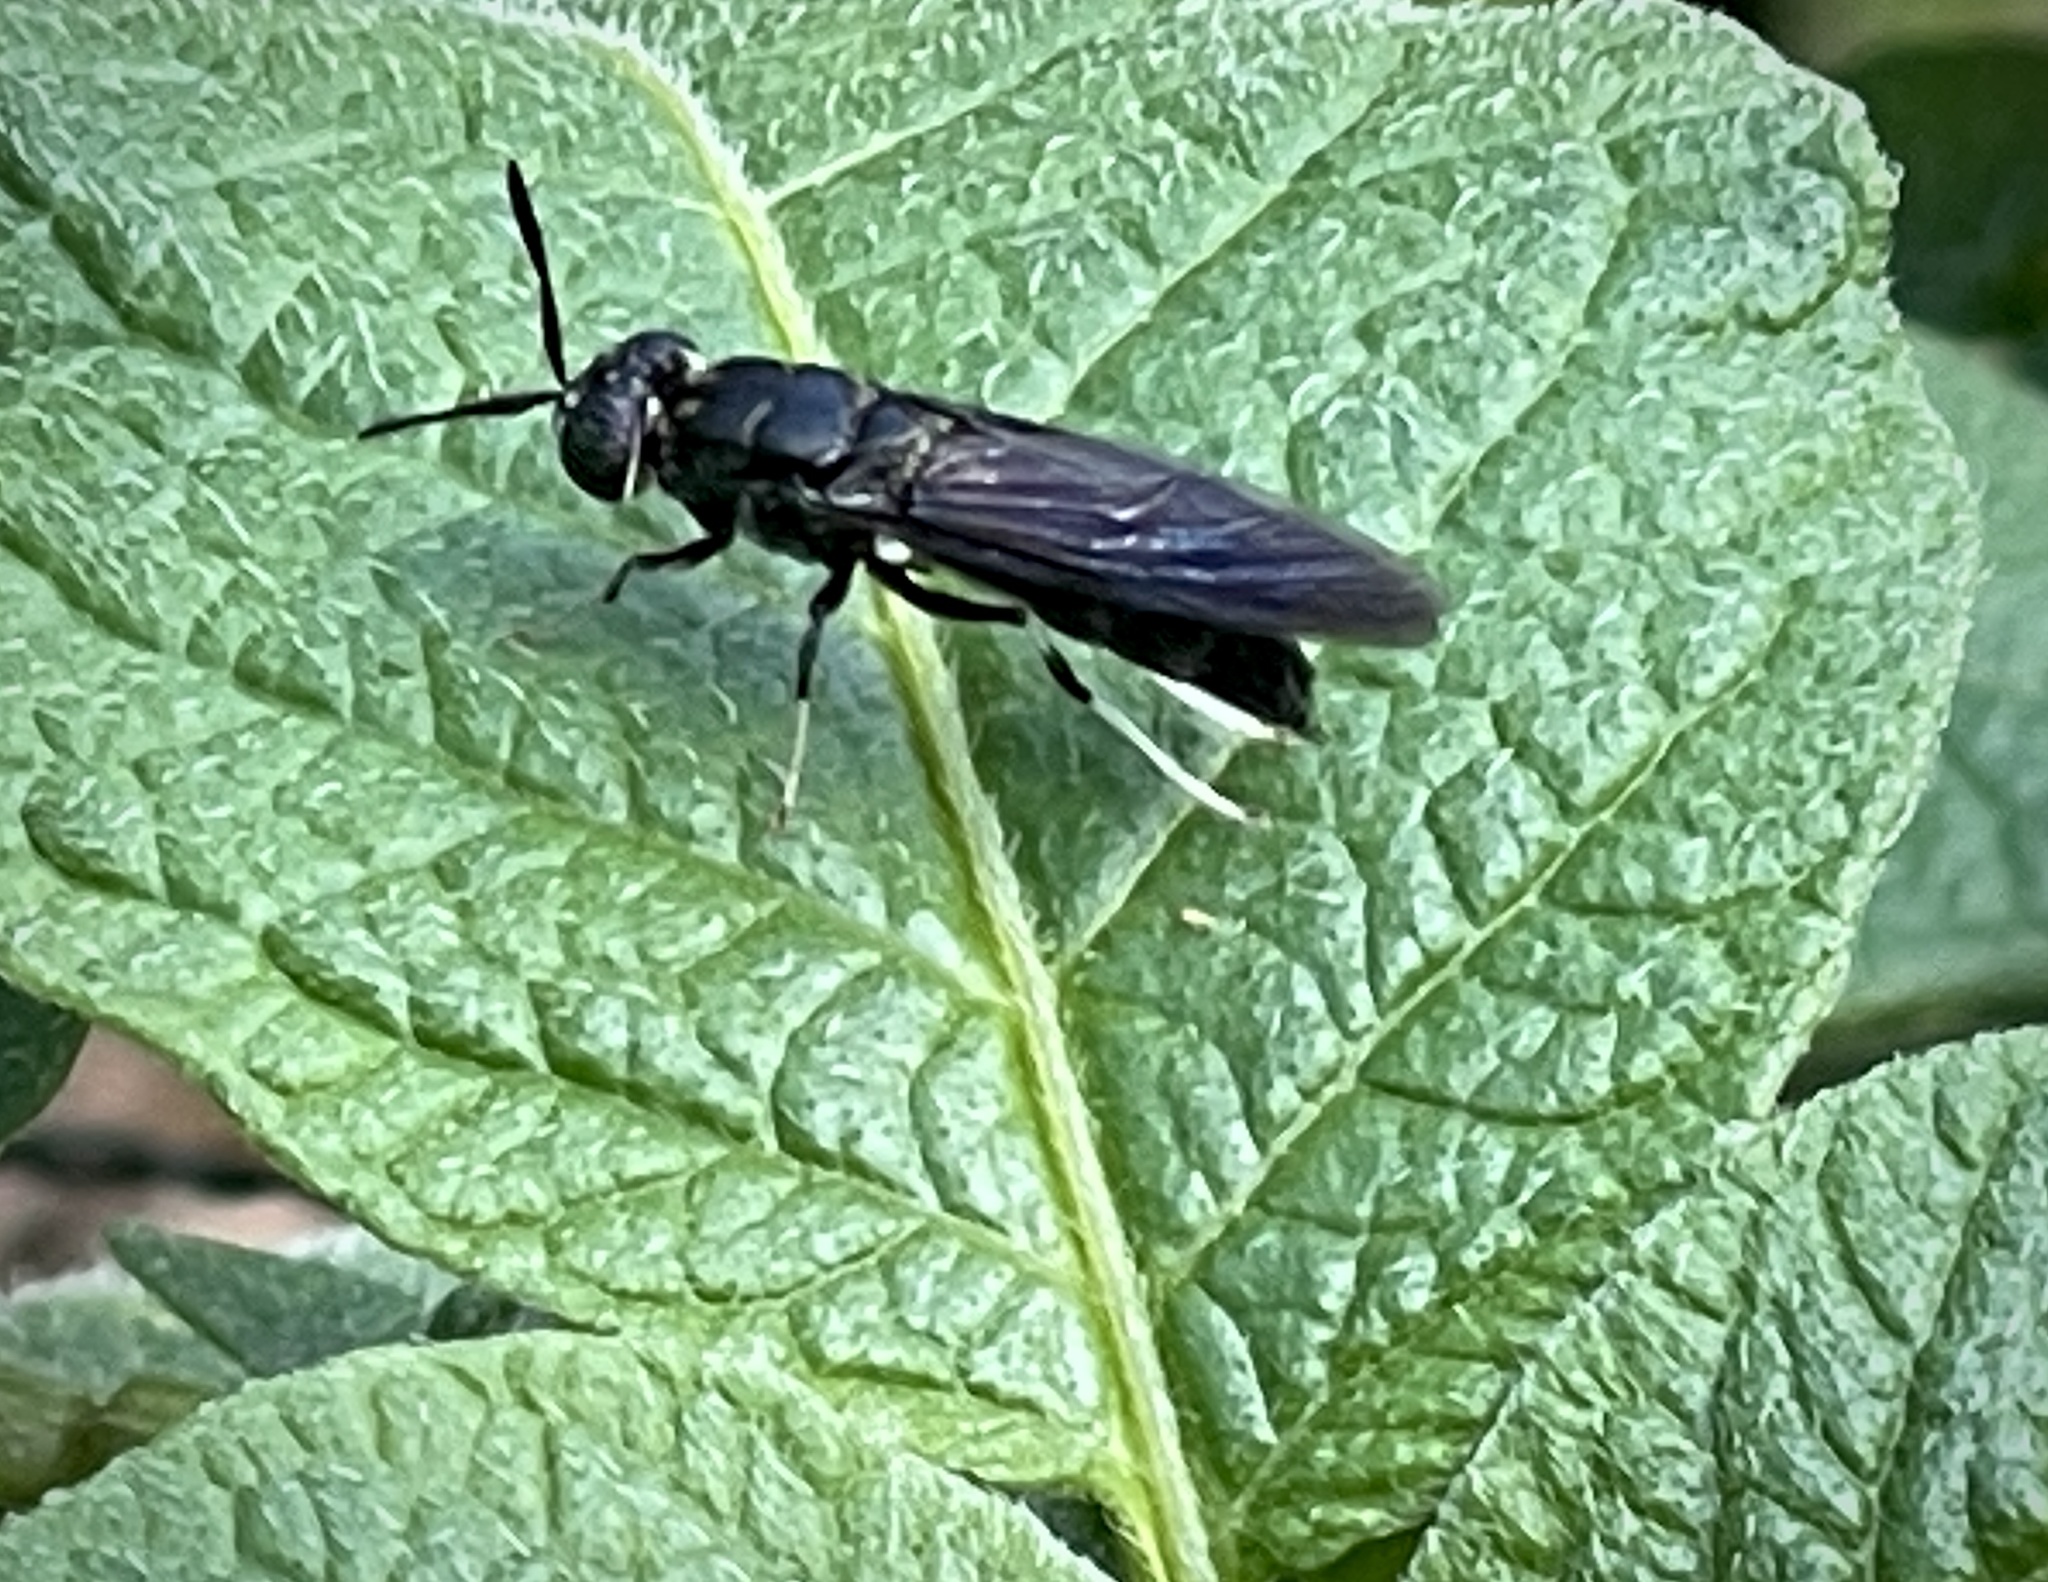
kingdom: Animalia
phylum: Arthropoda
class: Insecta
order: Diptera
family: Stratiomyidae
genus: Hermetia
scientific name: Hermetia illucens
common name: Black soldier fly
